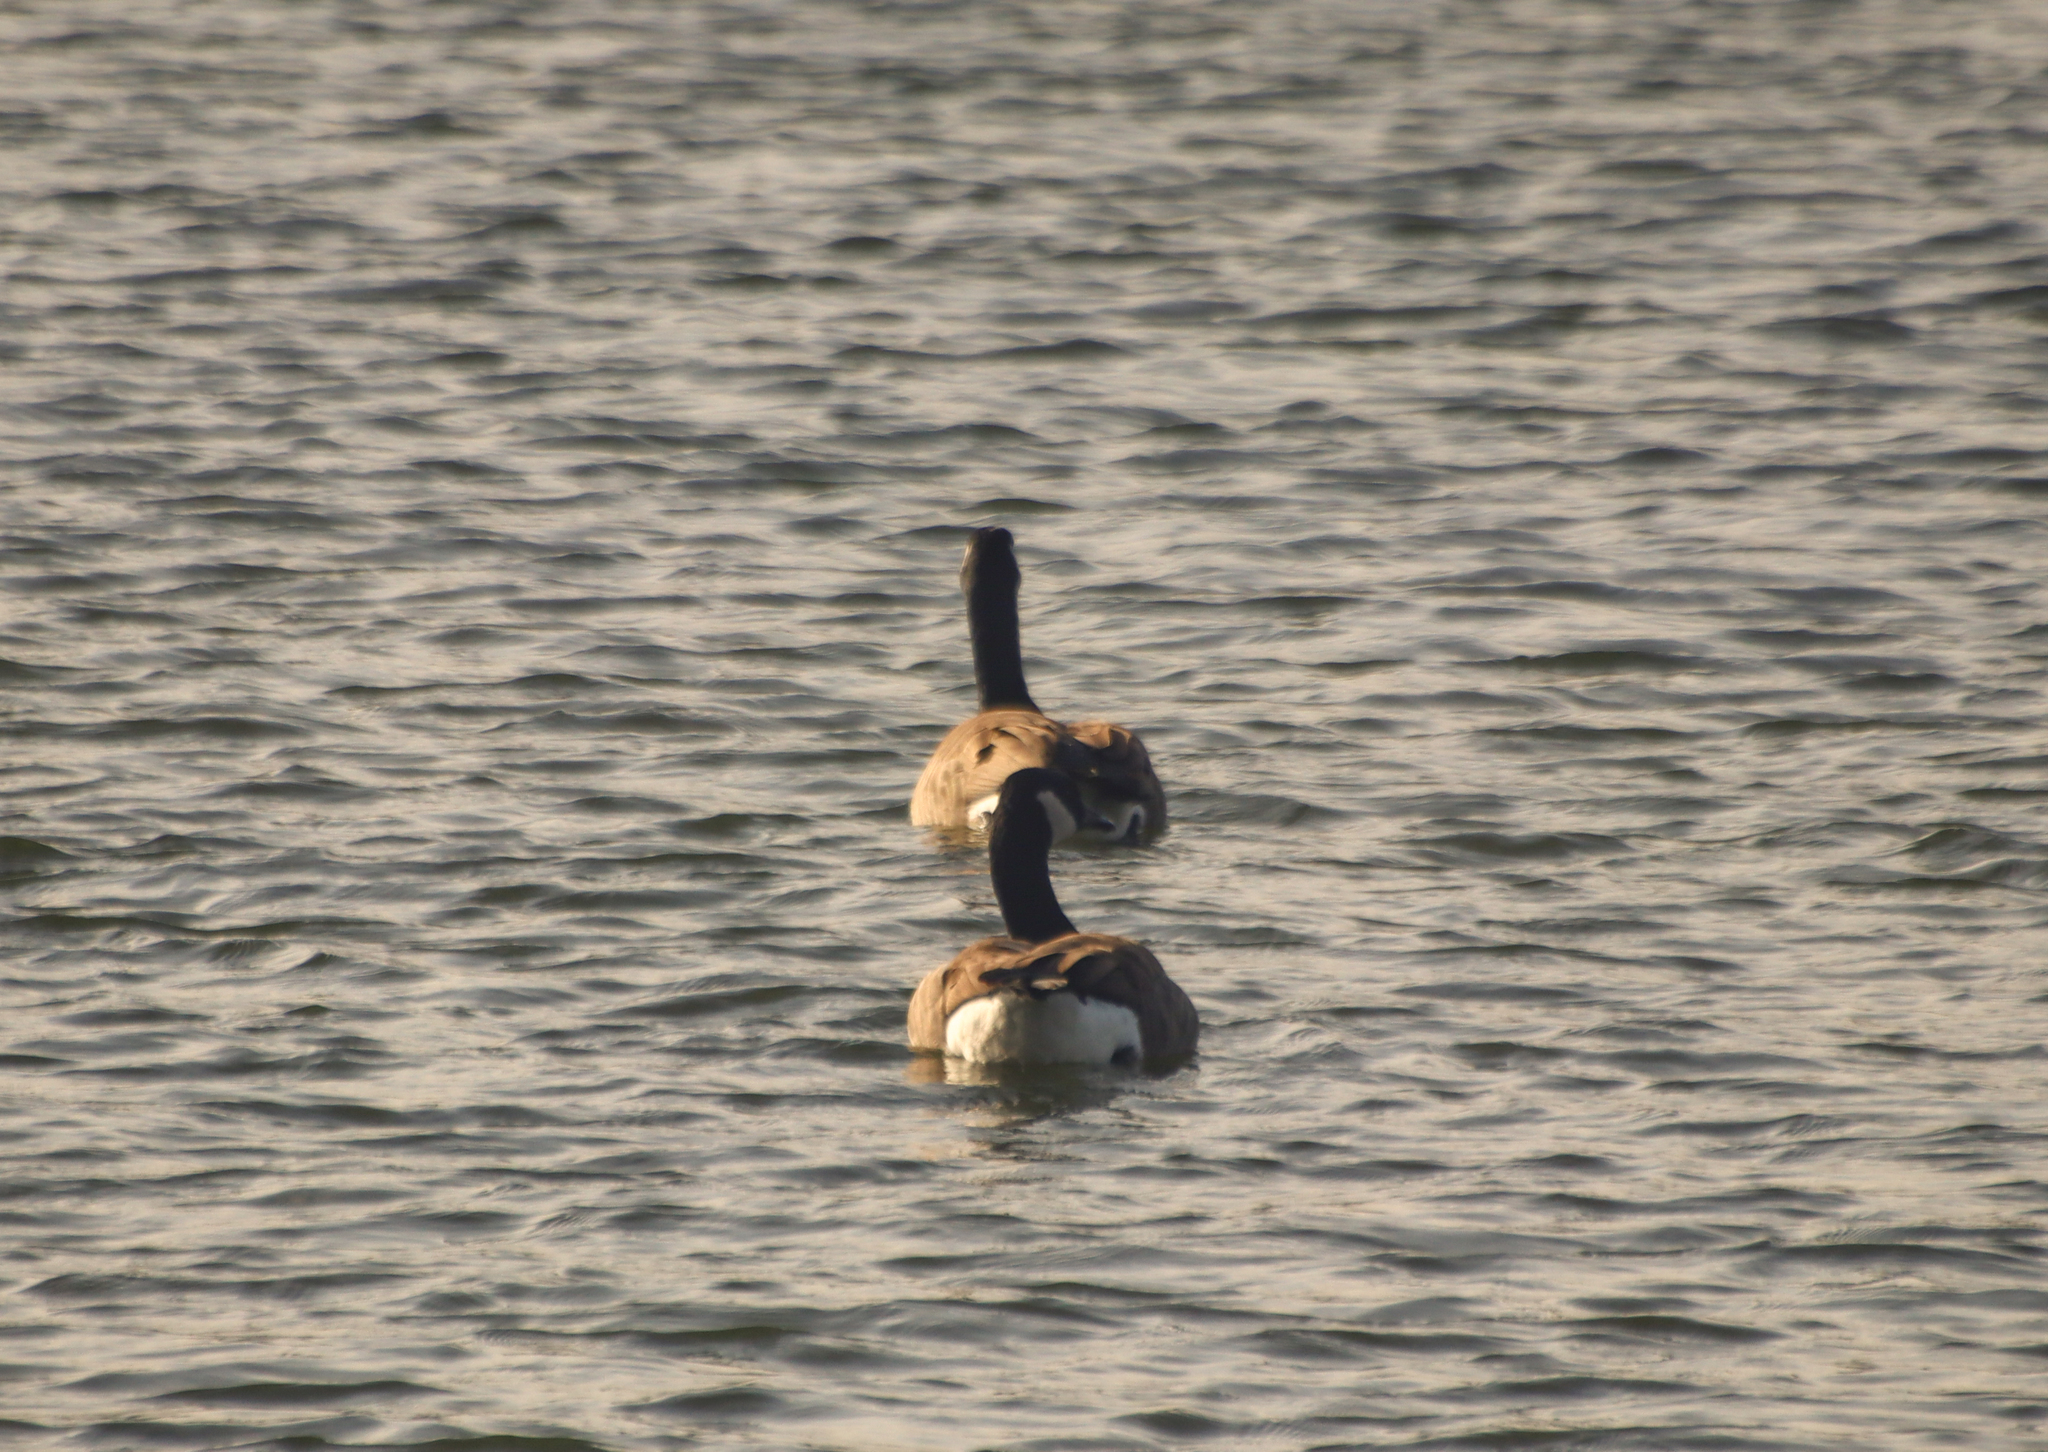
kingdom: Animalia
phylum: Chordata
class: Aves
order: Anseriformes
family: Anatidae
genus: Branta
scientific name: Branta canadensis
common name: Canada goose
